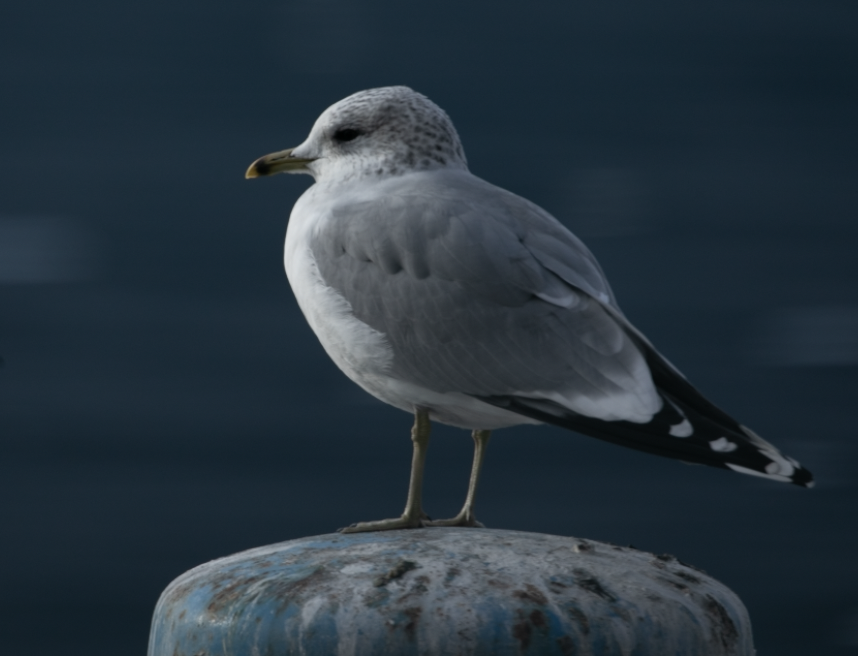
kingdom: Animalia
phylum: Chordata
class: Aves
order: Charadriiformes
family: Laridae
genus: Larus
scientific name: Larus canus
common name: Mew gull
